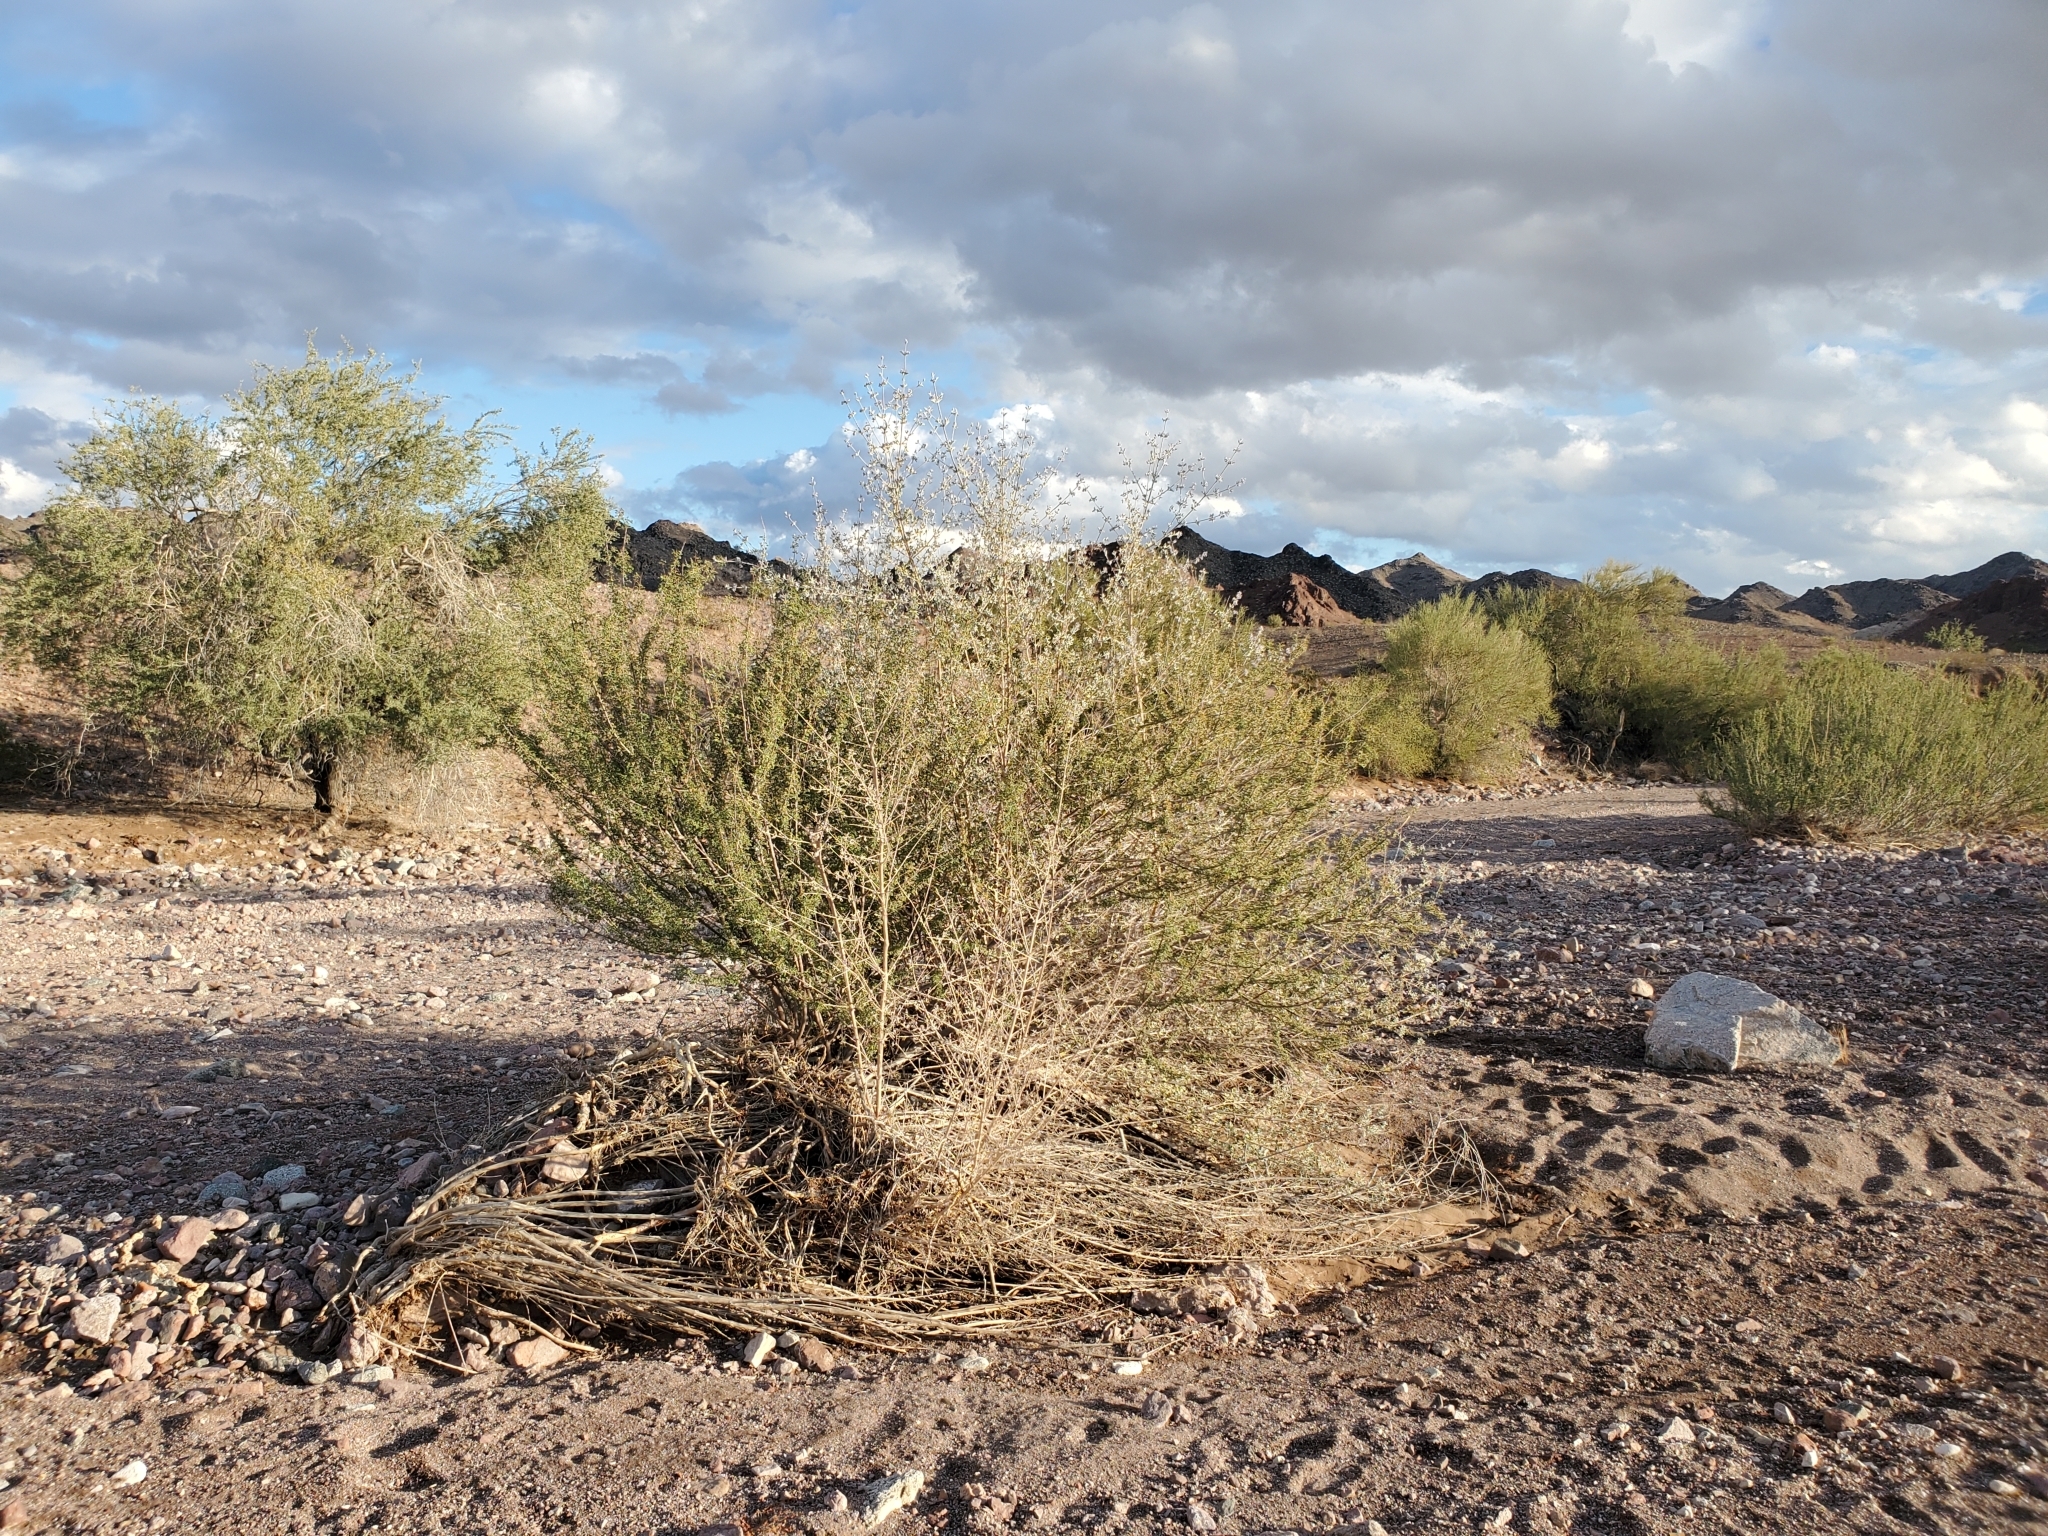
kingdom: Plantae
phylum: Tracheophyta
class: Magnoliopsida
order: Lamiales
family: Lamiaceae
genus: Condea
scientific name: Condea emoryi
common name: Chia
